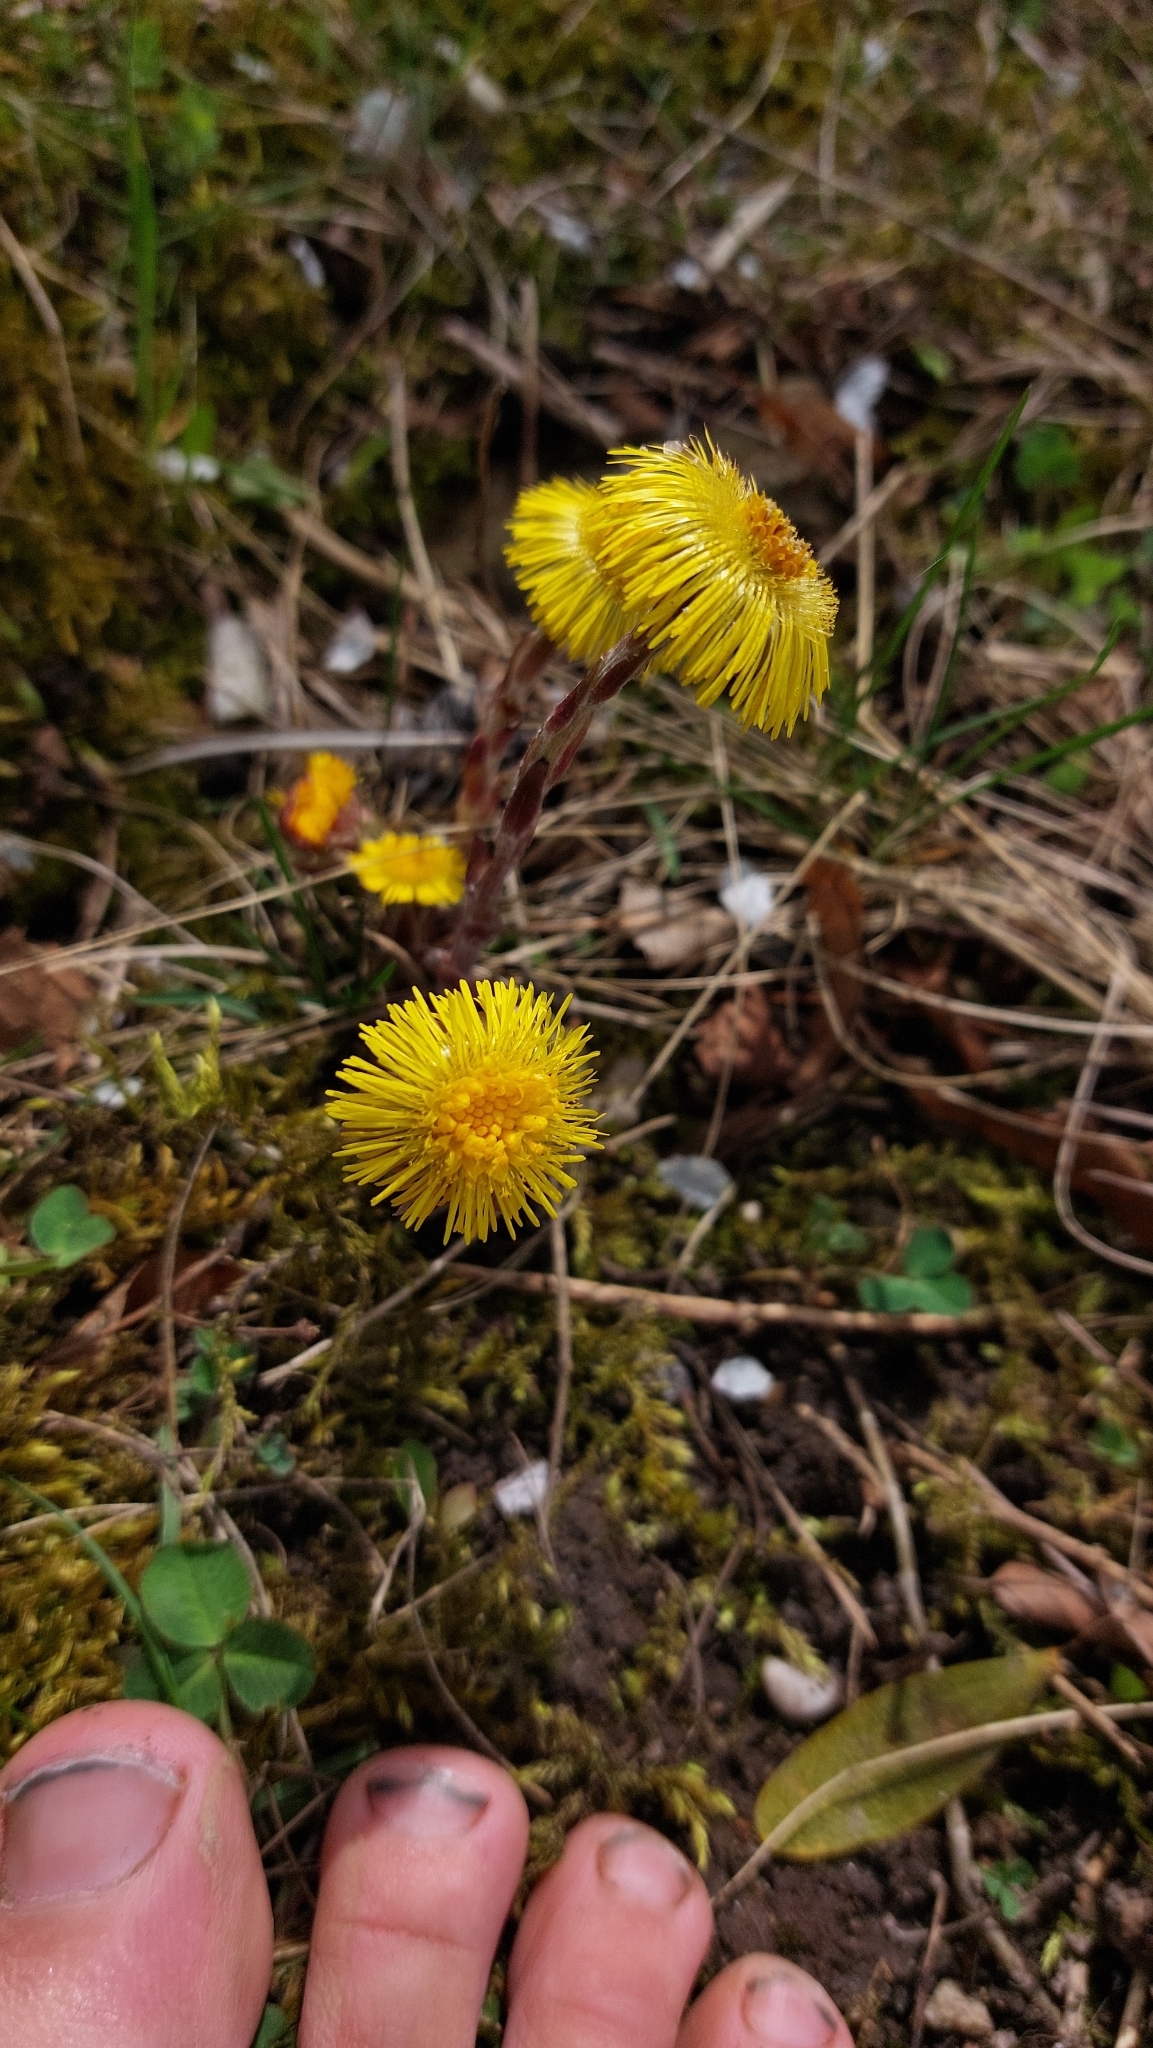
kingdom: Plantae
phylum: Tracheophyta
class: Magnoliopsida
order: Asterales
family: Asteraceae
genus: Tussilago
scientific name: Tussilago farfara
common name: Coltsfoot
